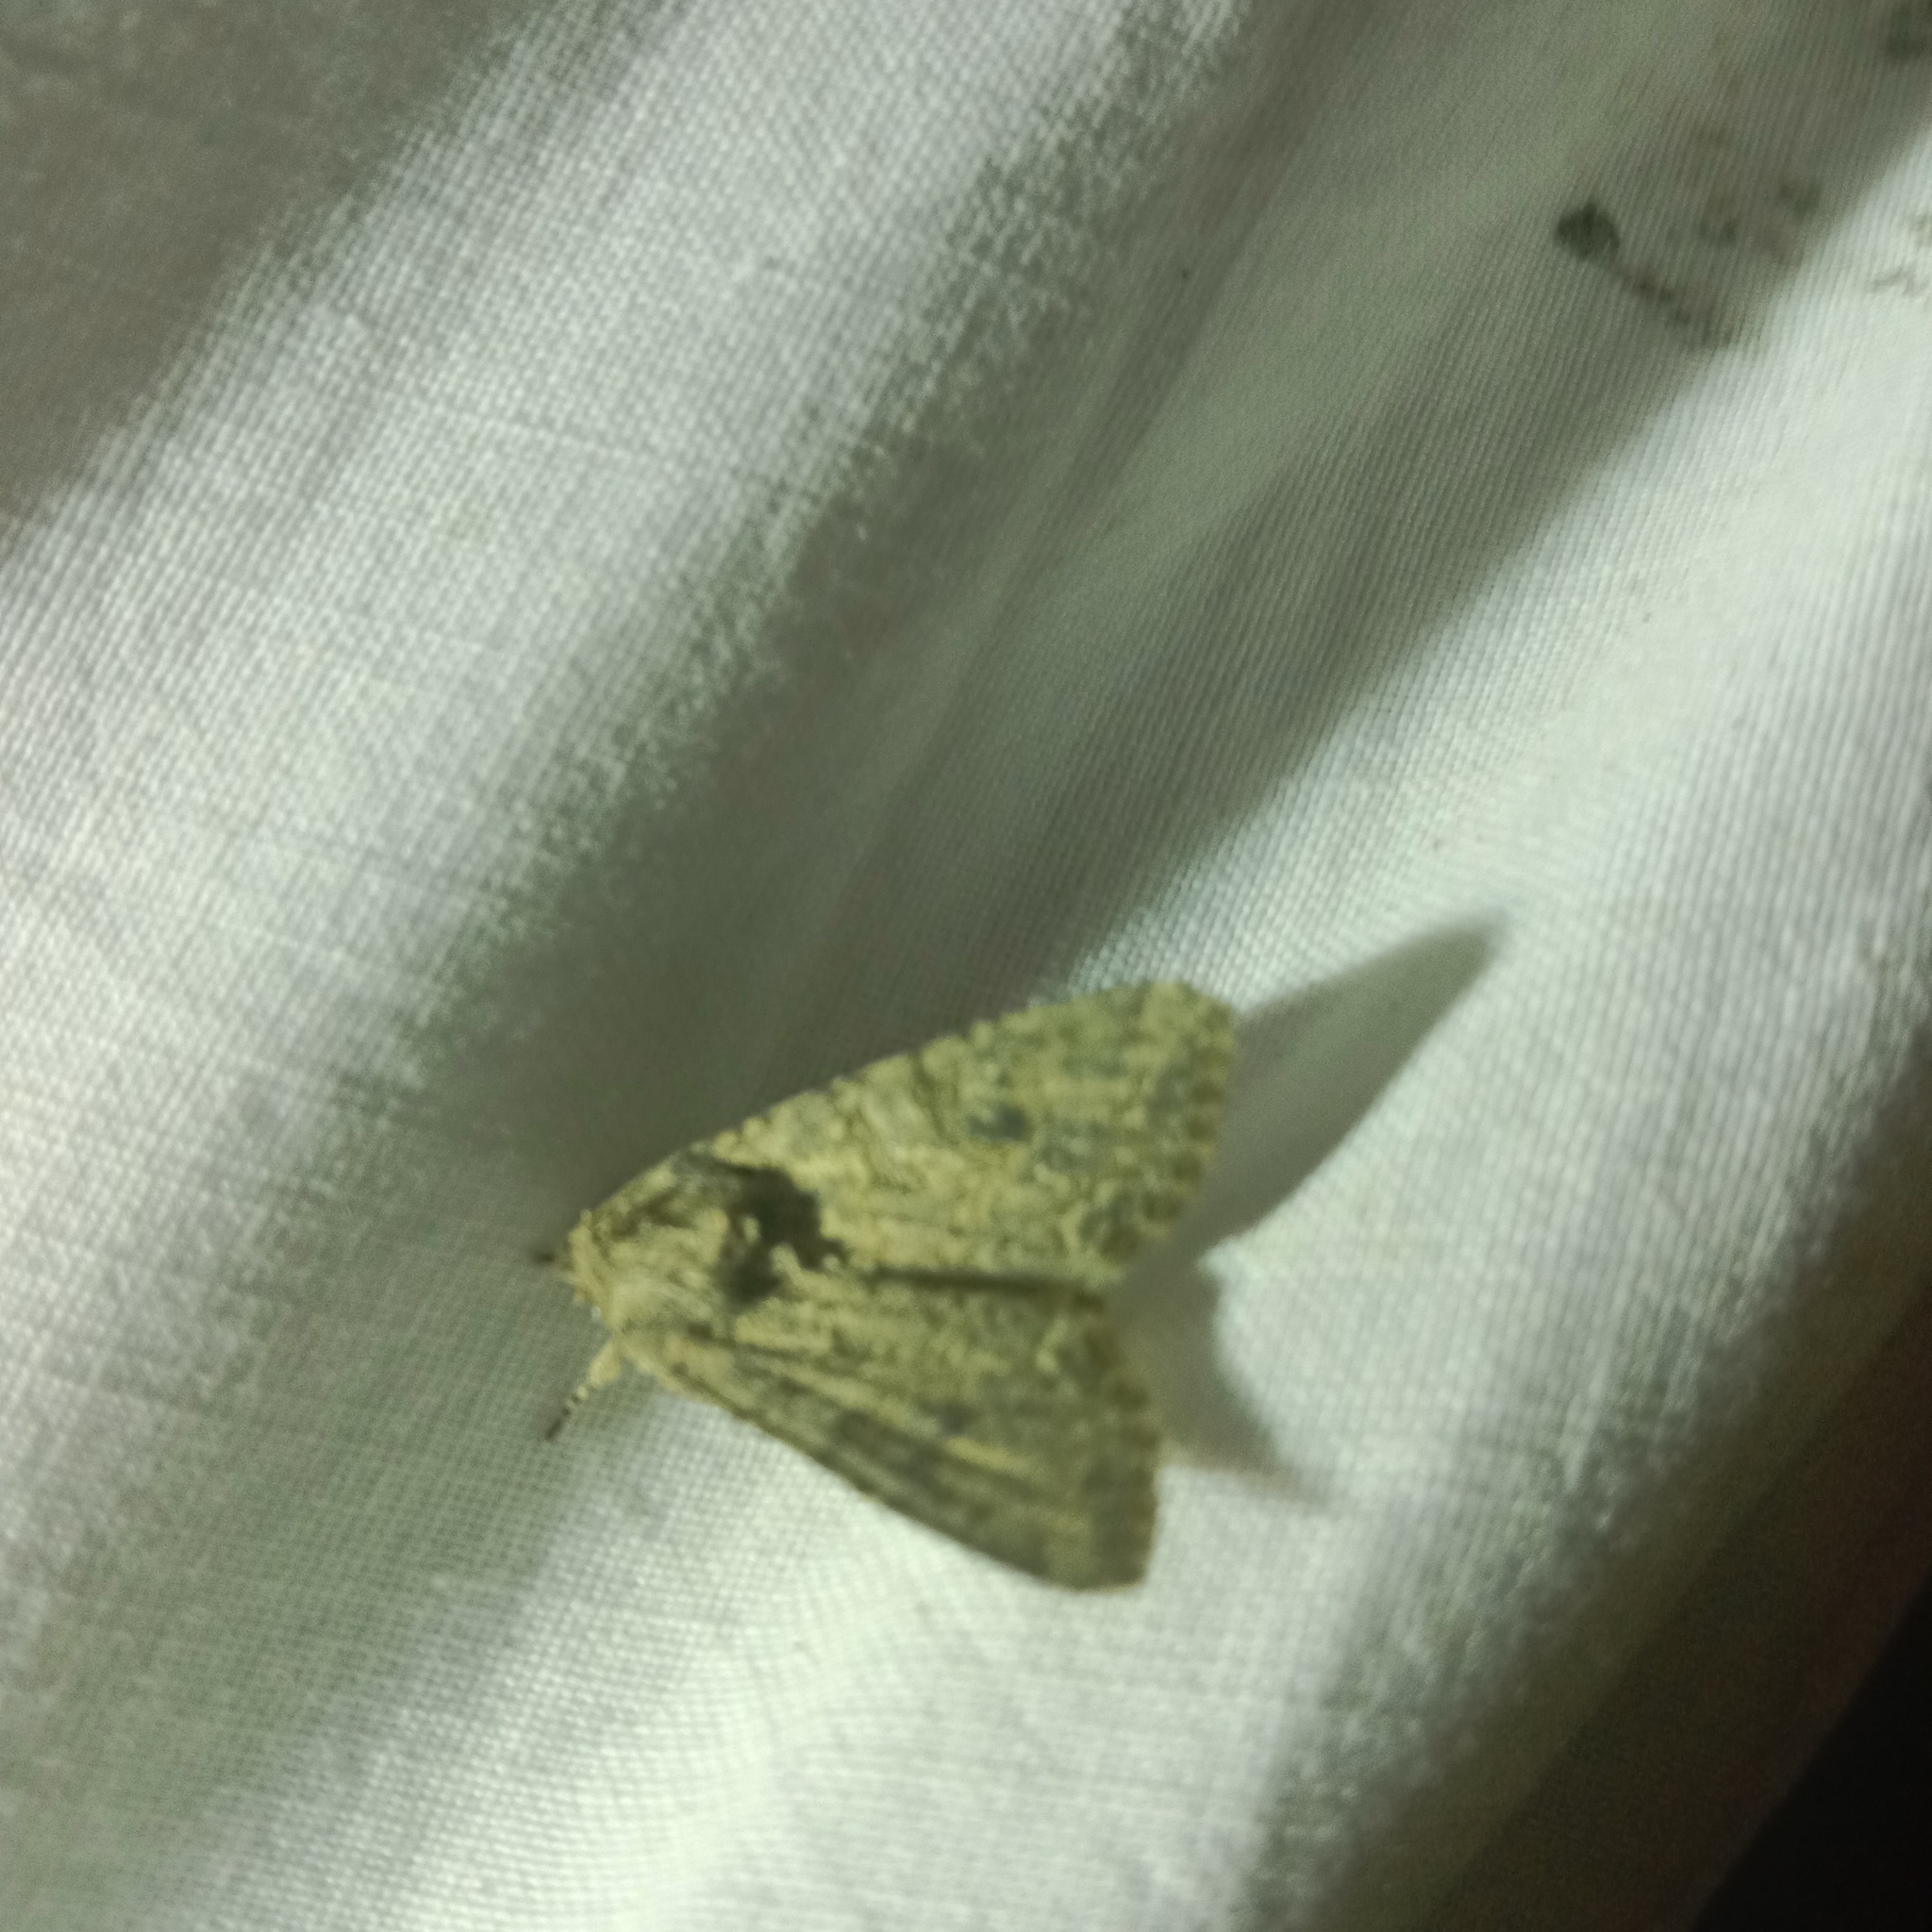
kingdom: Animalia
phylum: Arthropoda
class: Insecta
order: Lepidoptera
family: Noctuidae
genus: Anarta
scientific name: Anarta trifolii
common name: Clover cutworm moth
